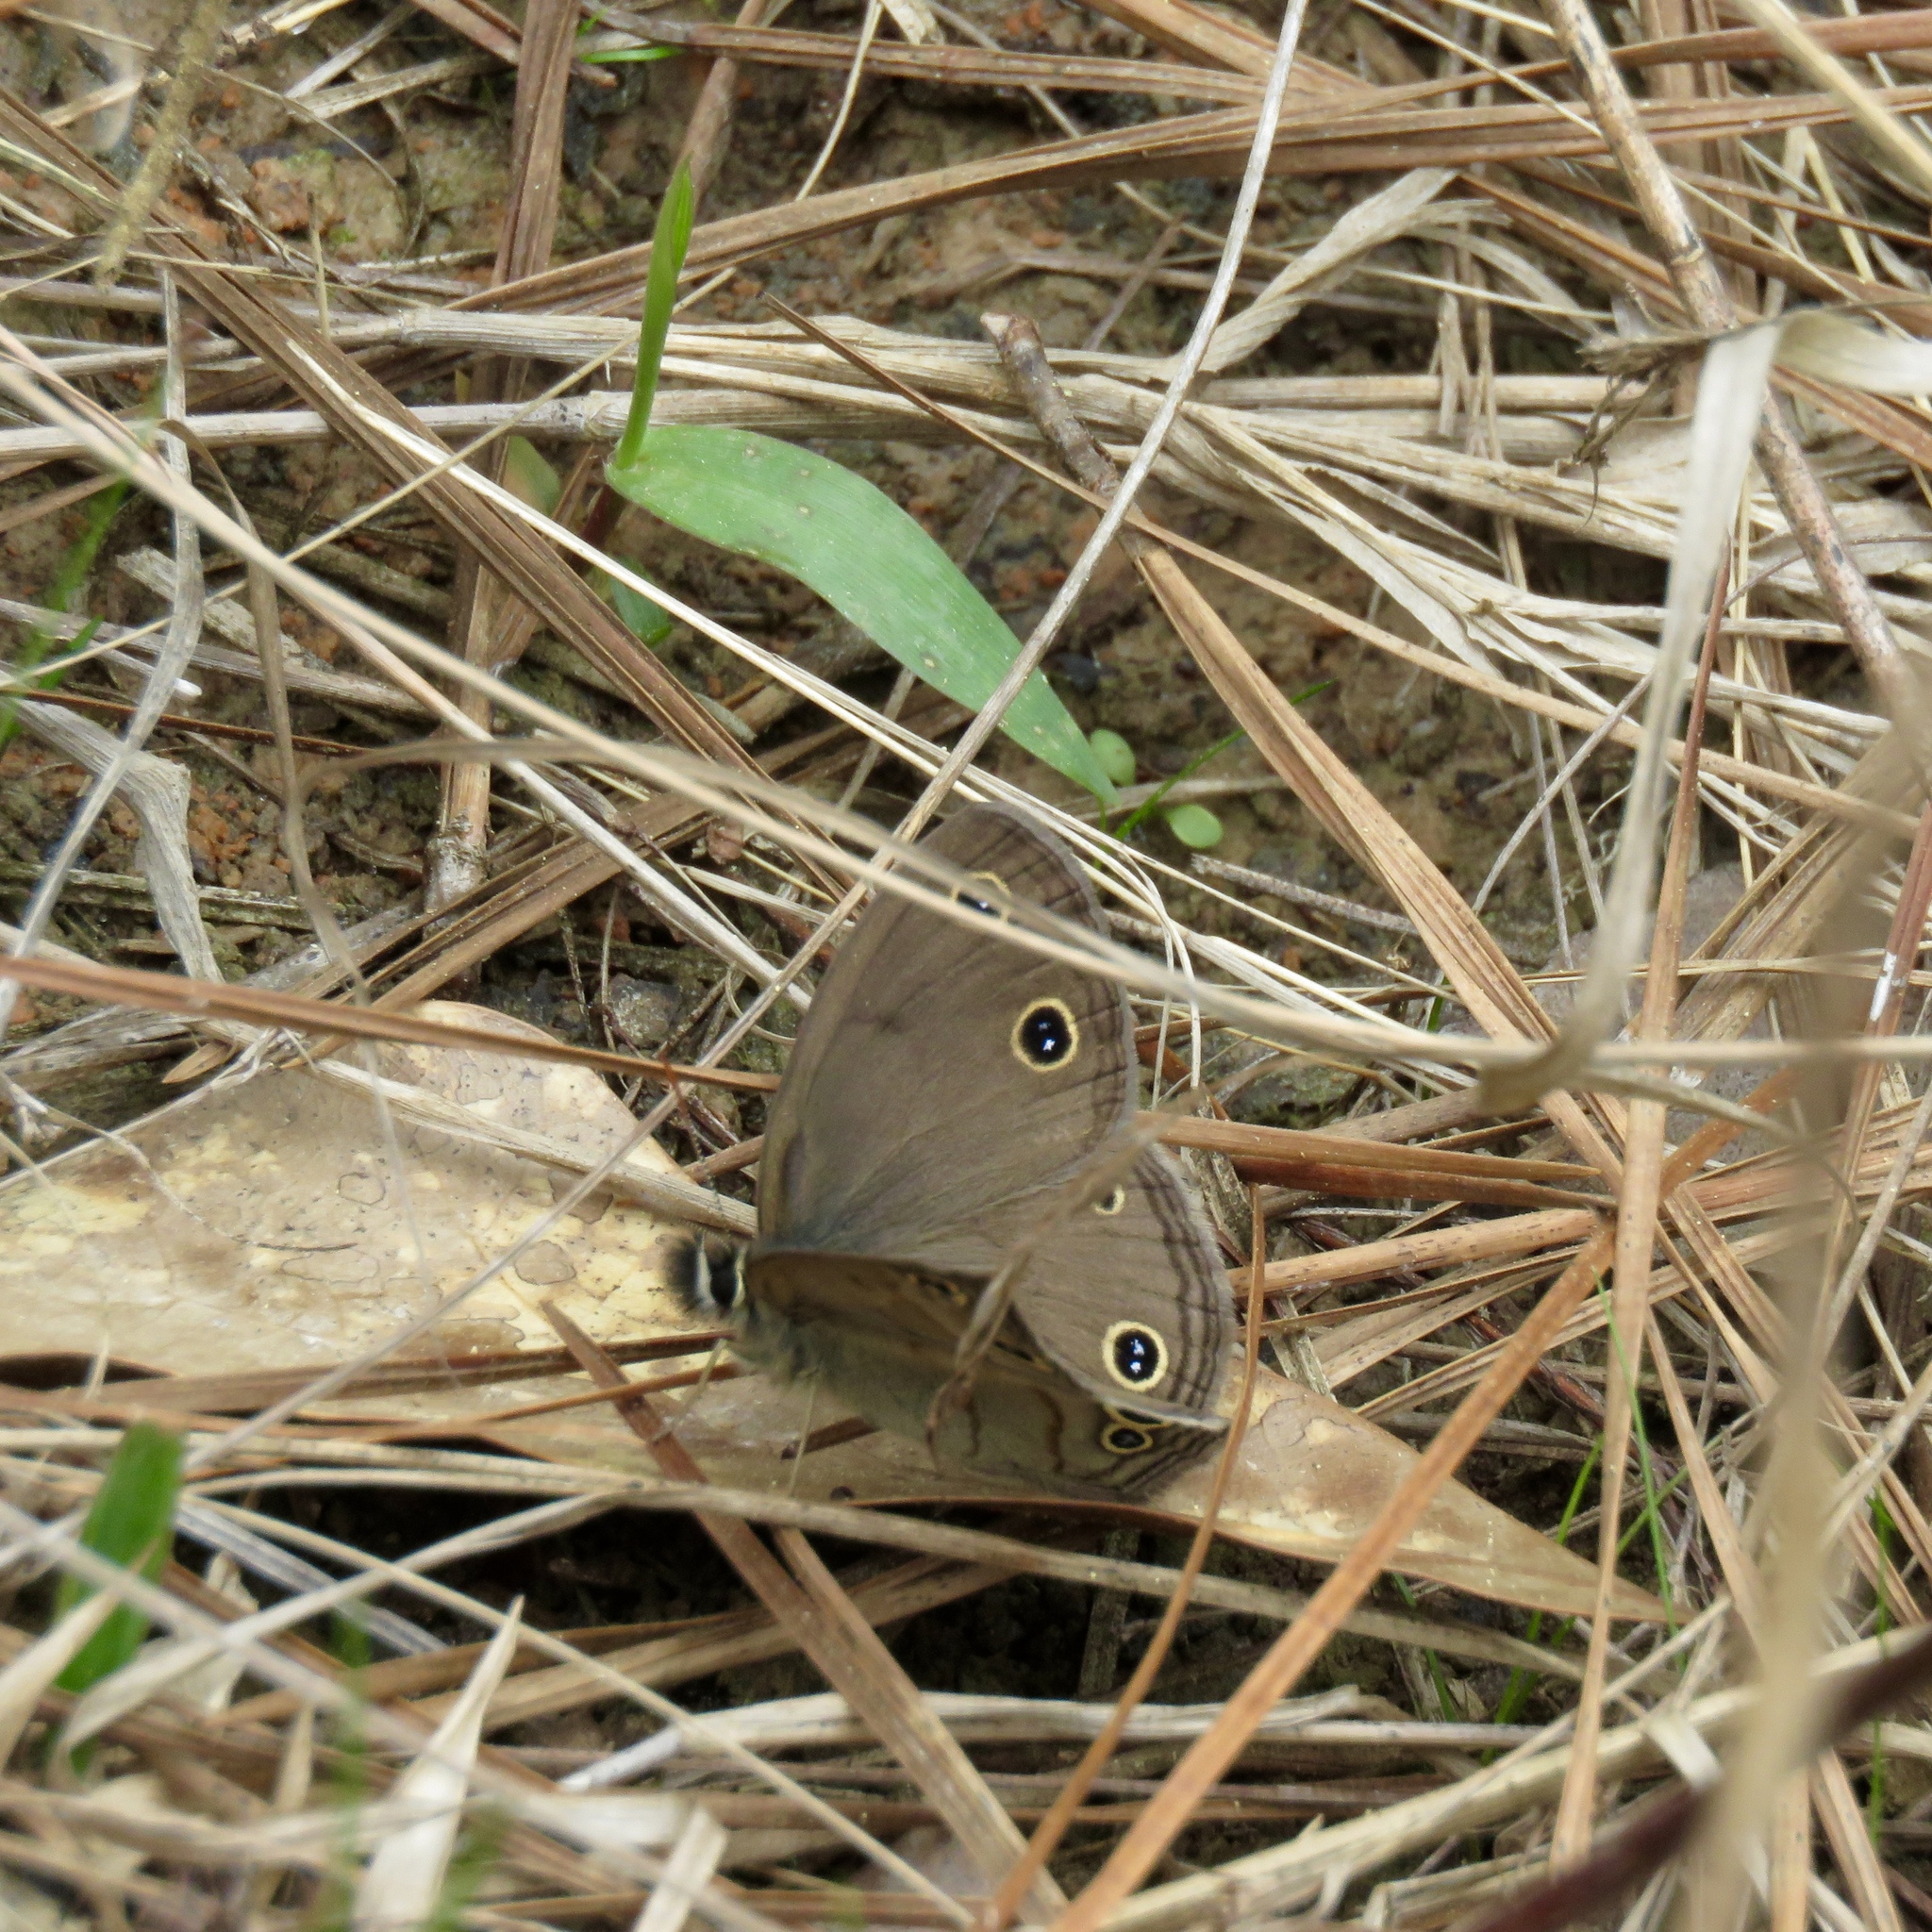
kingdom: Animalia
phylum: Arthropoda
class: Insecta
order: Lepidoptera
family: Nymphalidae
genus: Euptychia
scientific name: Euptychia cymela
